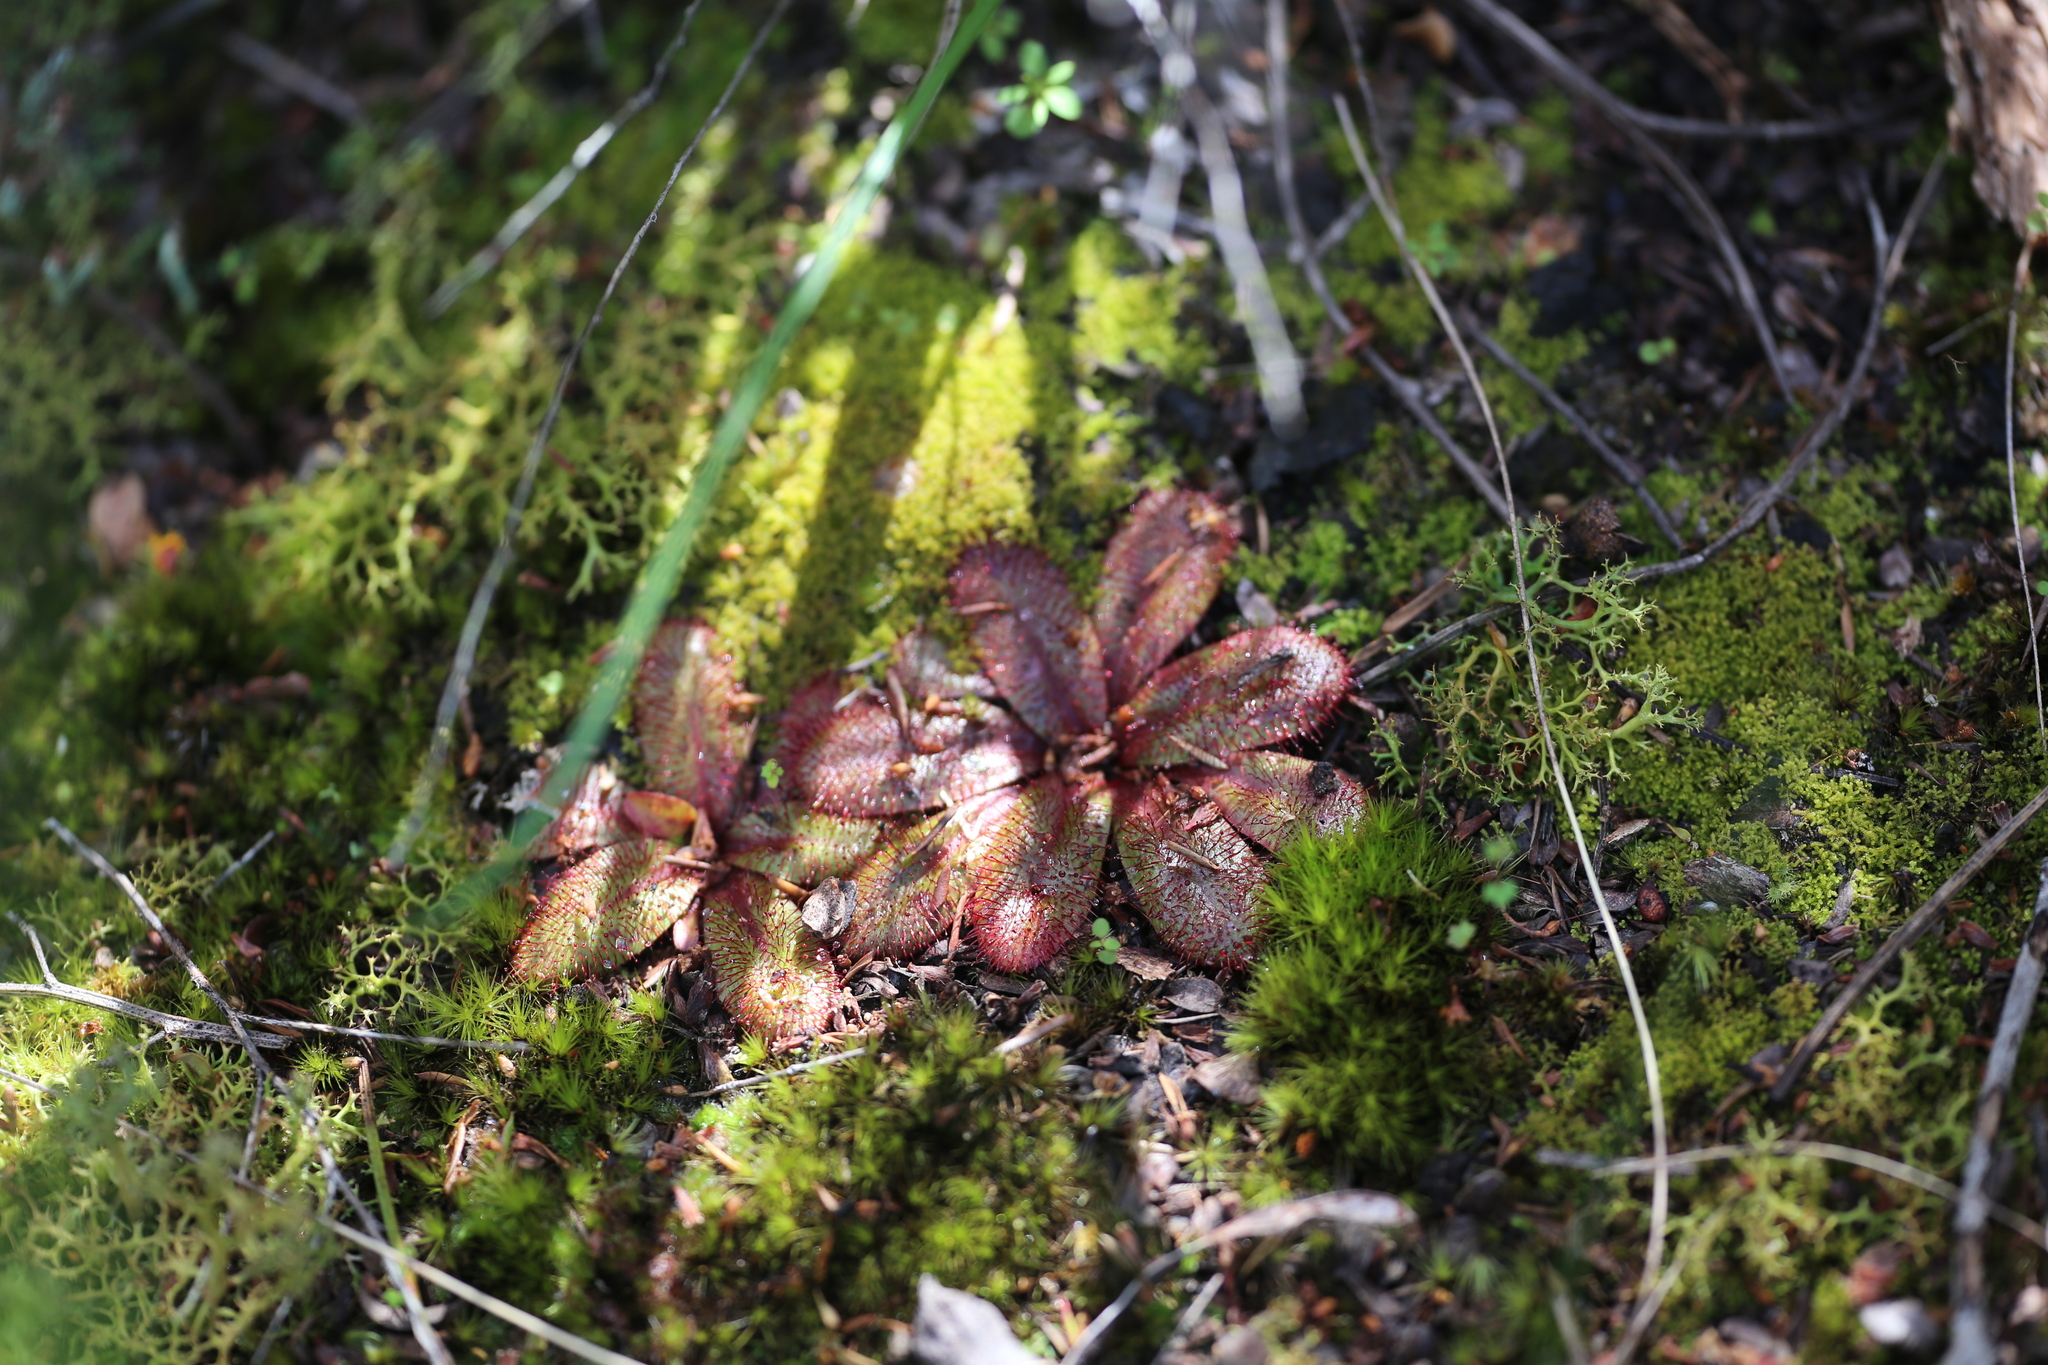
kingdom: Plantae
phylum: Tracheophyta
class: Magnoliopsida
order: Caryophyllales
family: Droseraceae
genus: Drosera
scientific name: Drosera rosulata
